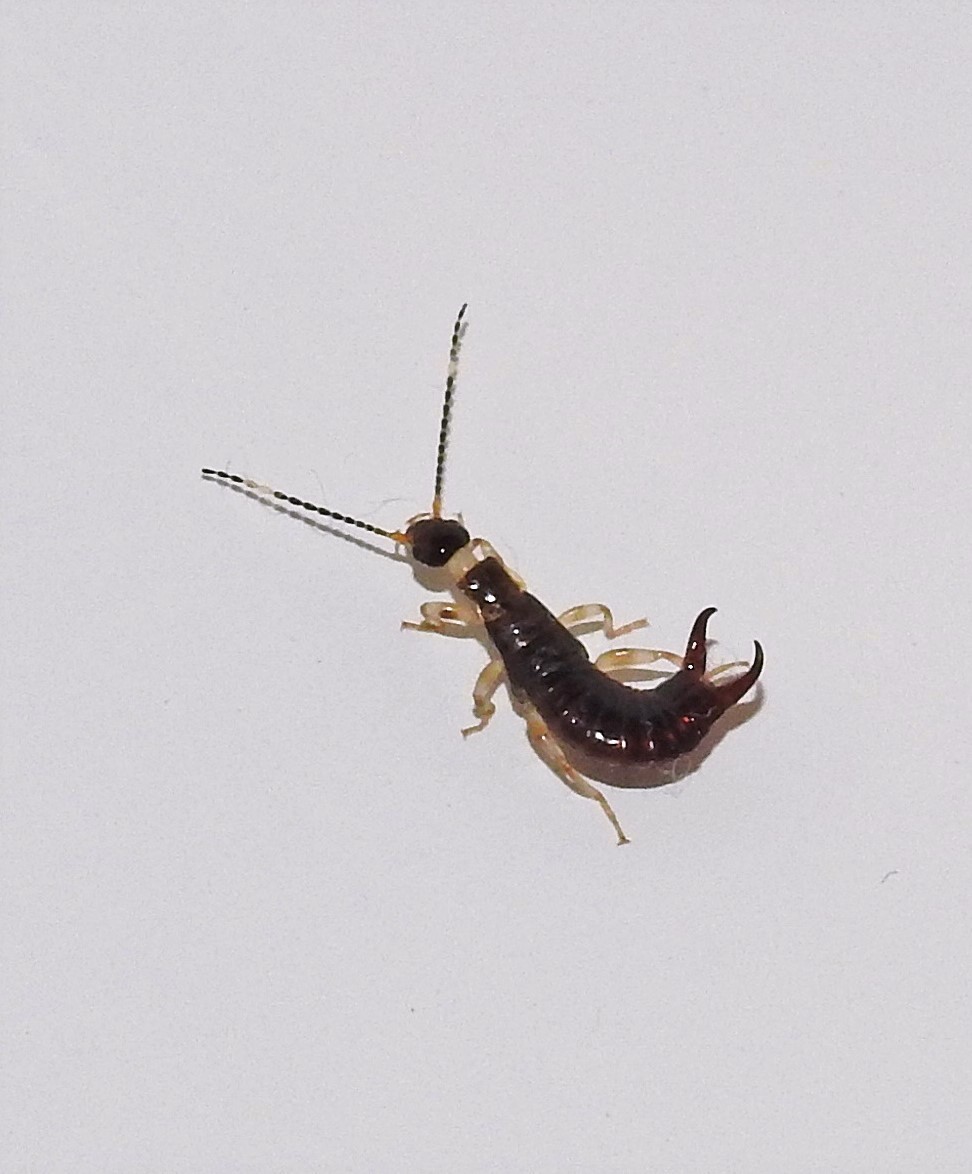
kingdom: Animalia
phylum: Arthropoda
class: Insecta
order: Dermaptera
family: Anisolabididae
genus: Euborellia
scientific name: Euborellia annulipes
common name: Ringlegged earwig
